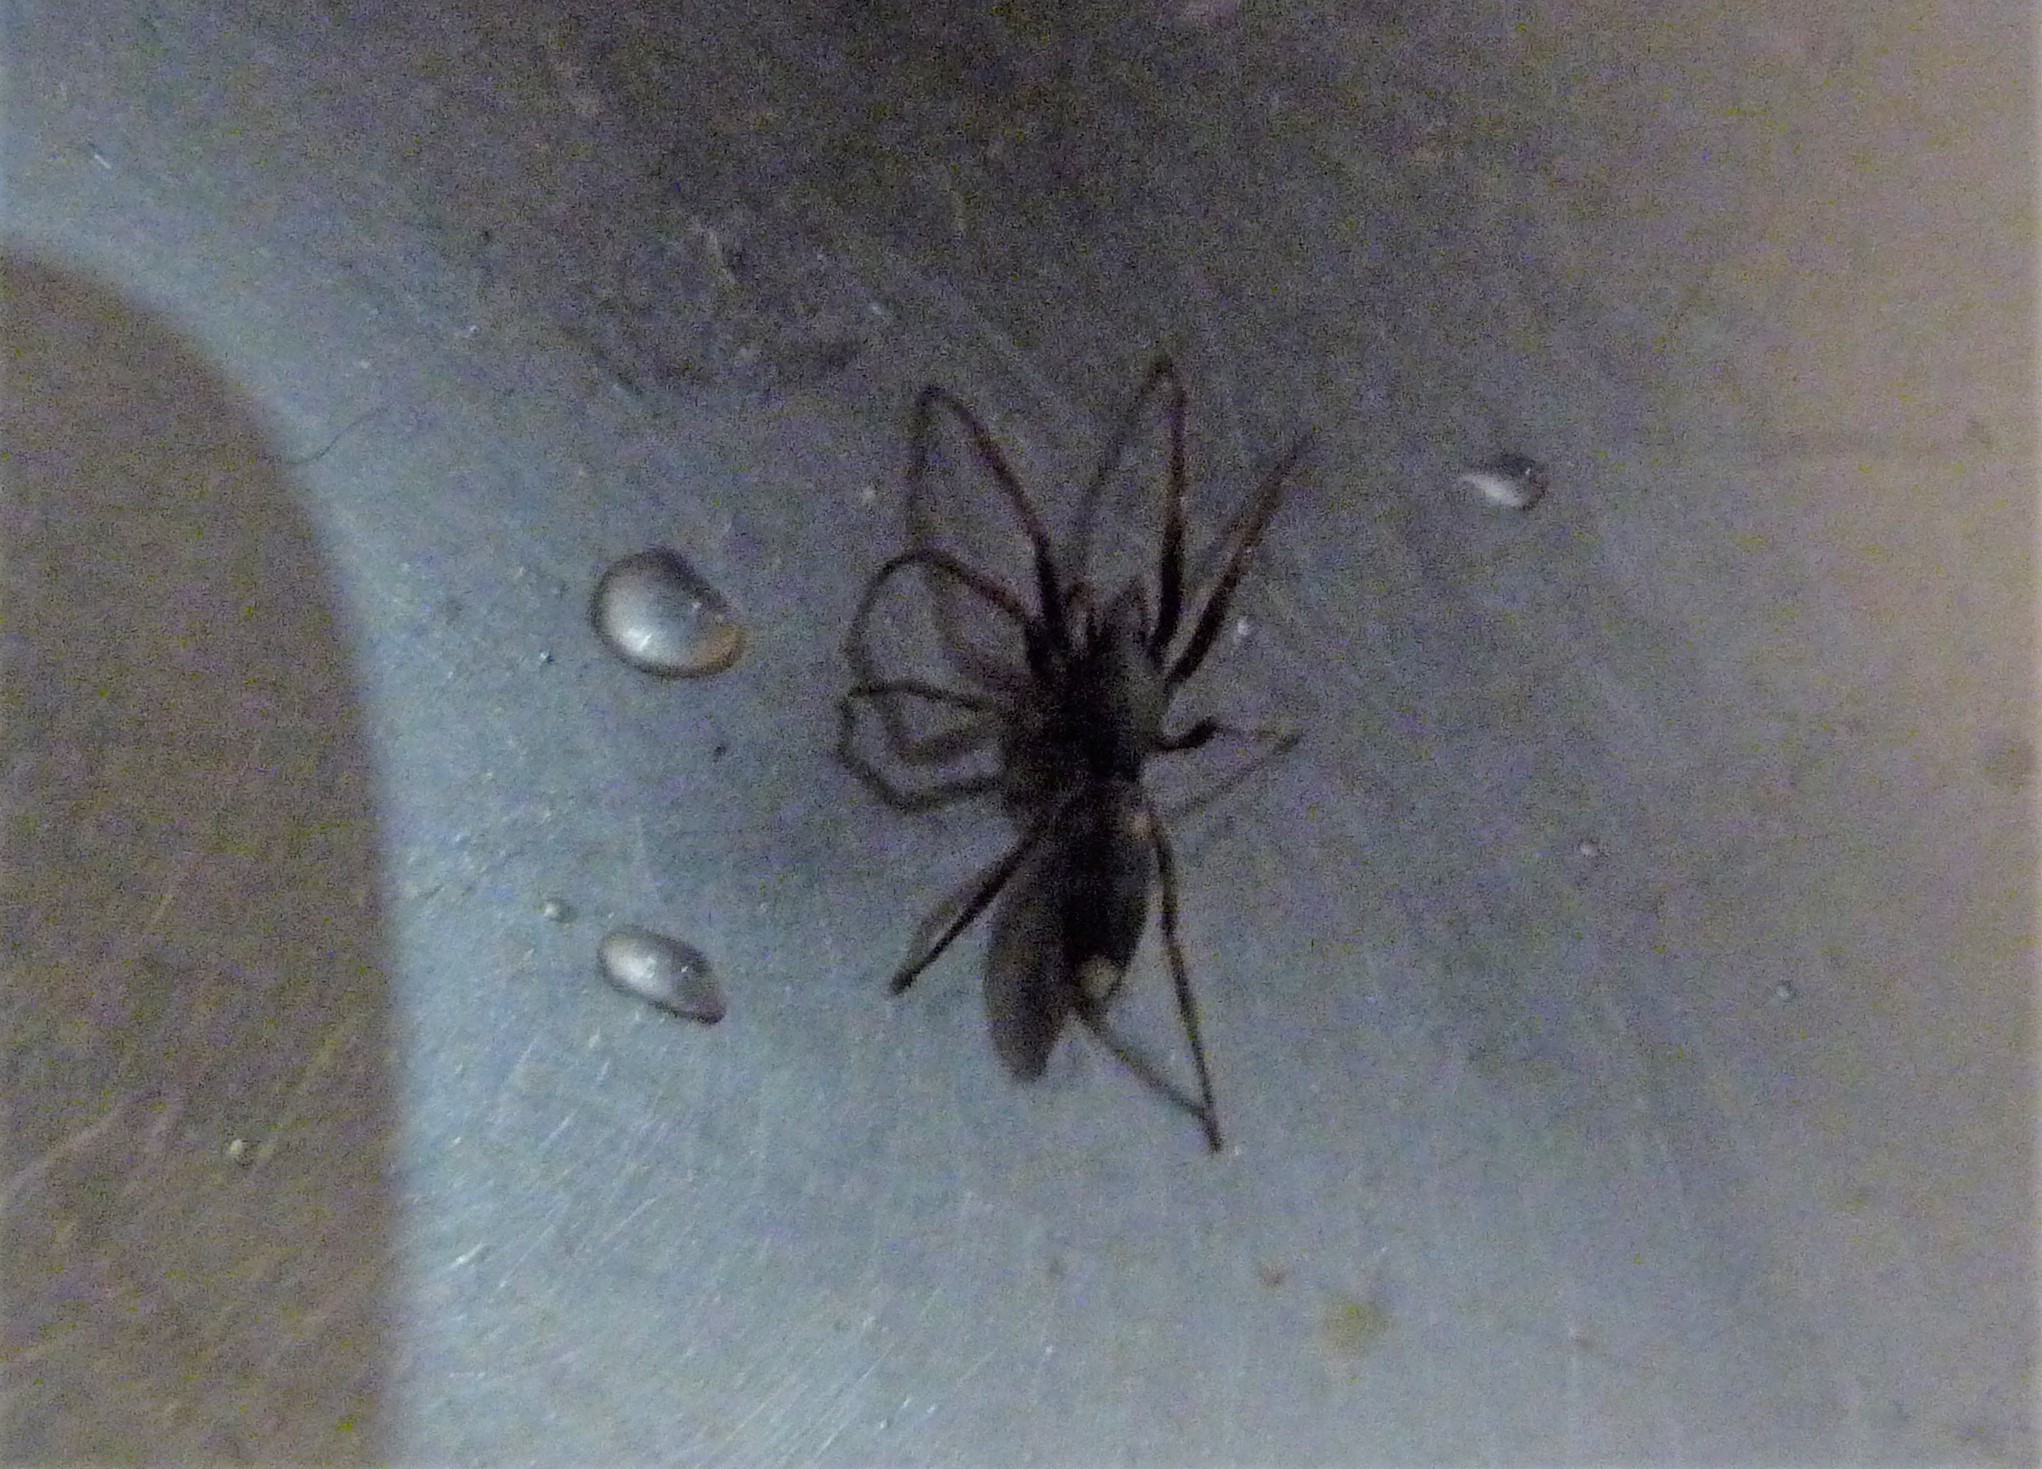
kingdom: Animalia
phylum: Arthropoda
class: Arachnida
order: Araneae
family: Lamponidae
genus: Lampona
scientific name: Lampona cylindrata
